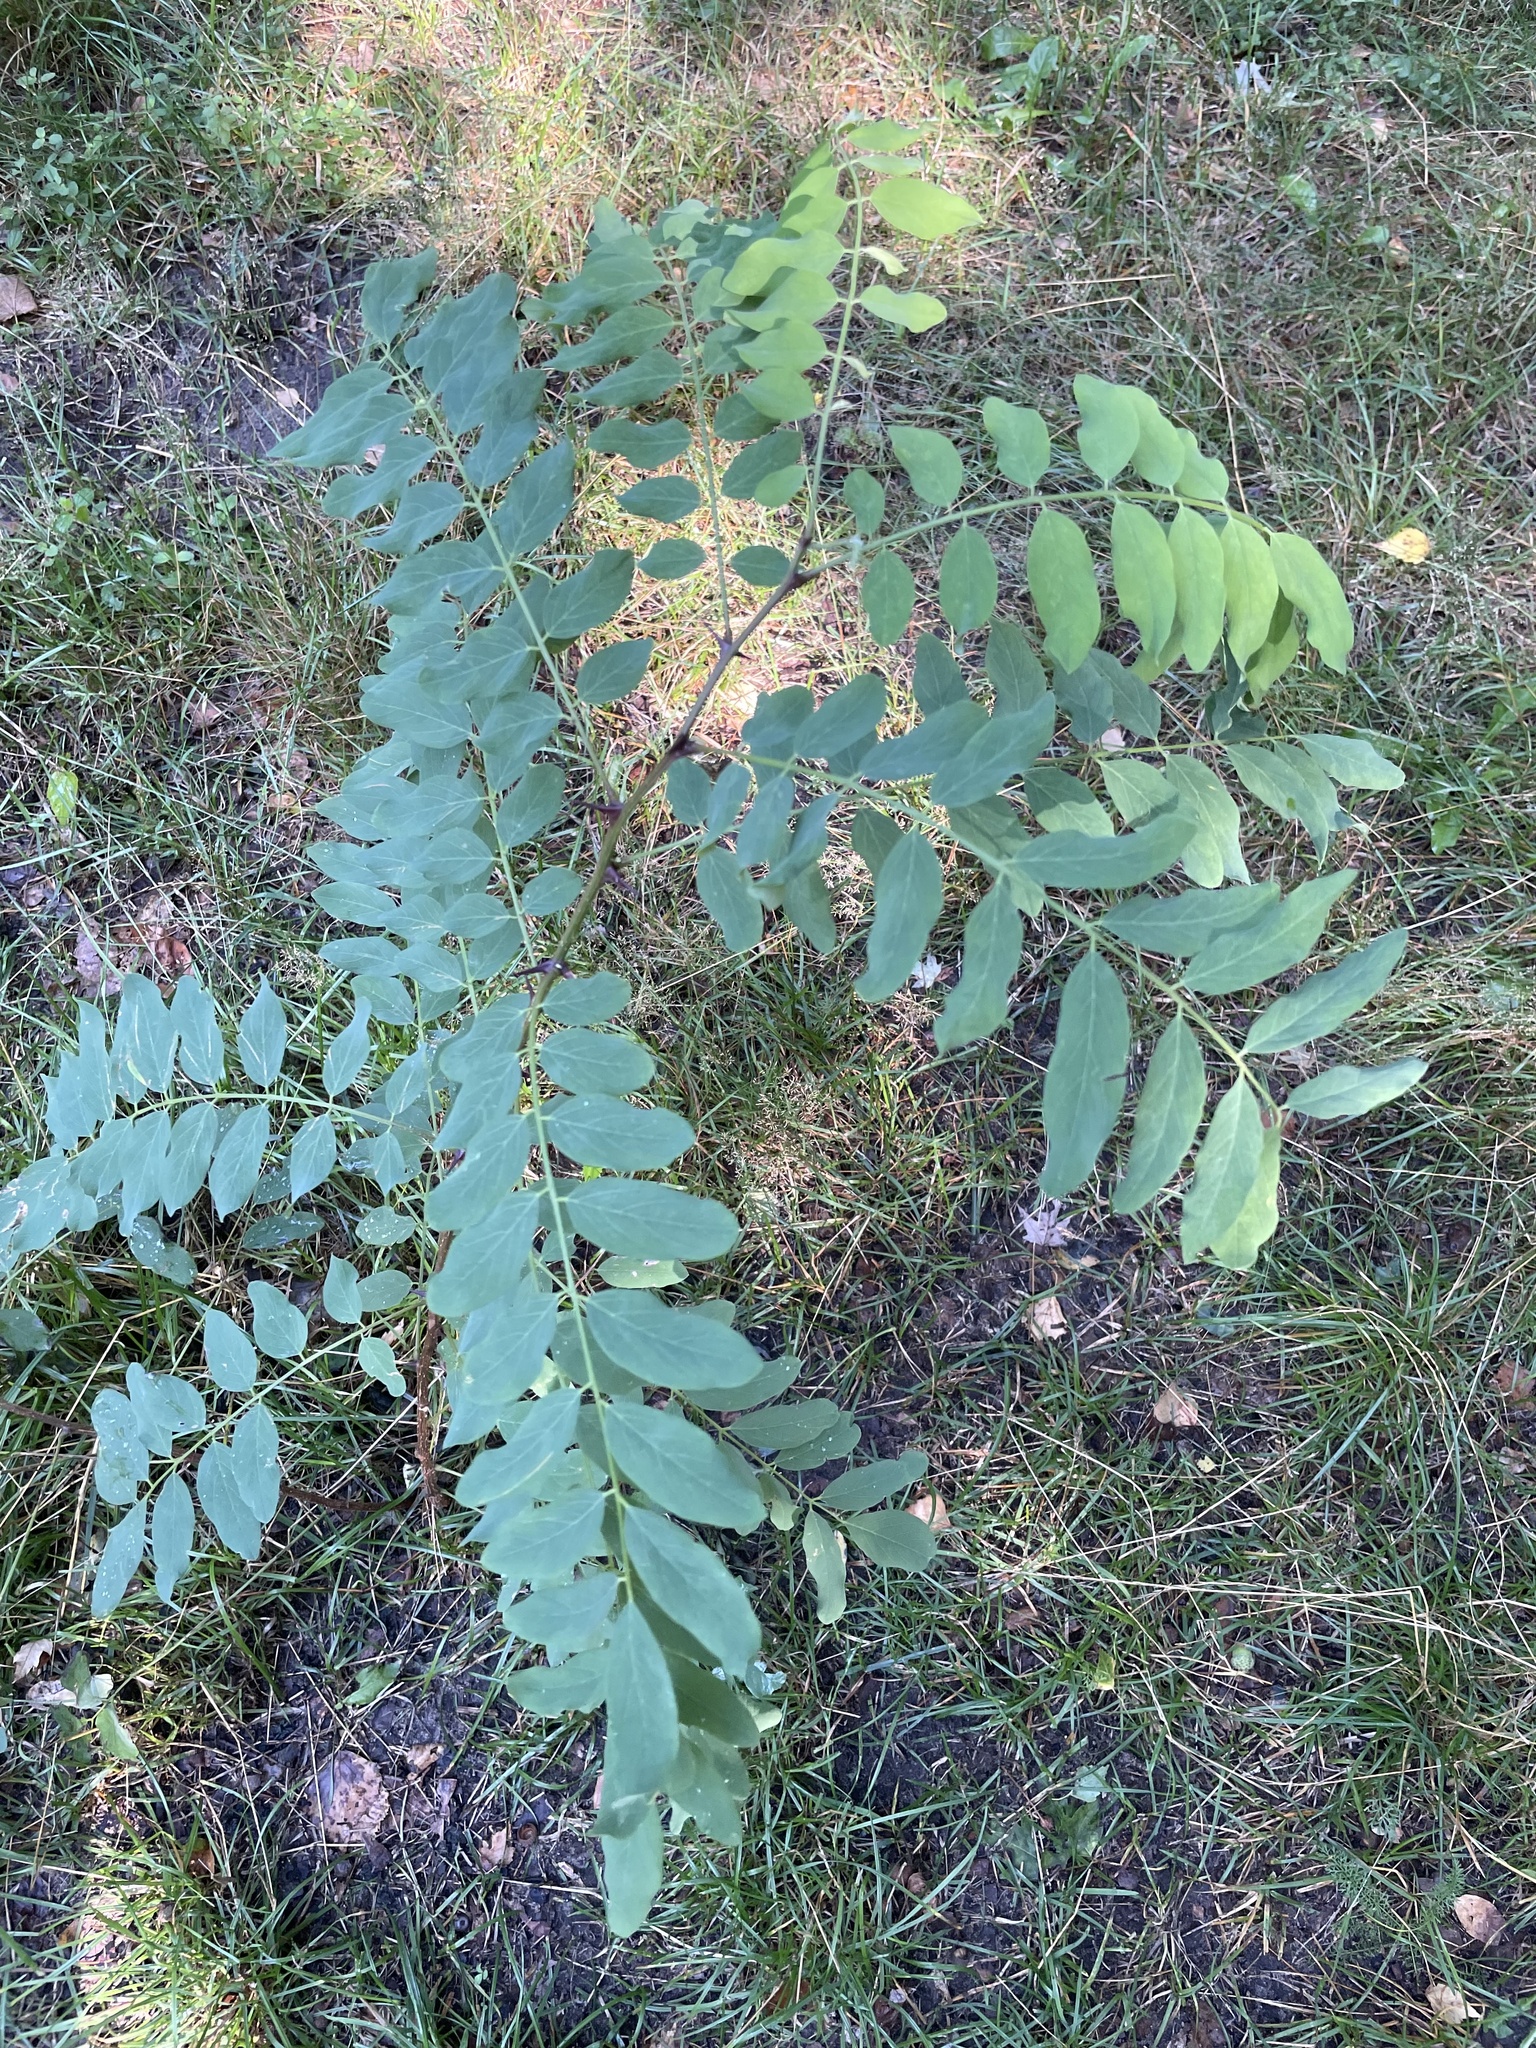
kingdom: Plantae
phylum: Tracheophyta
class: Magnoliopsida
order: Fabales
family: Fabaceae
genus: Robinia
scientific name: Robinia pseudoacacia
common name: Black locust
